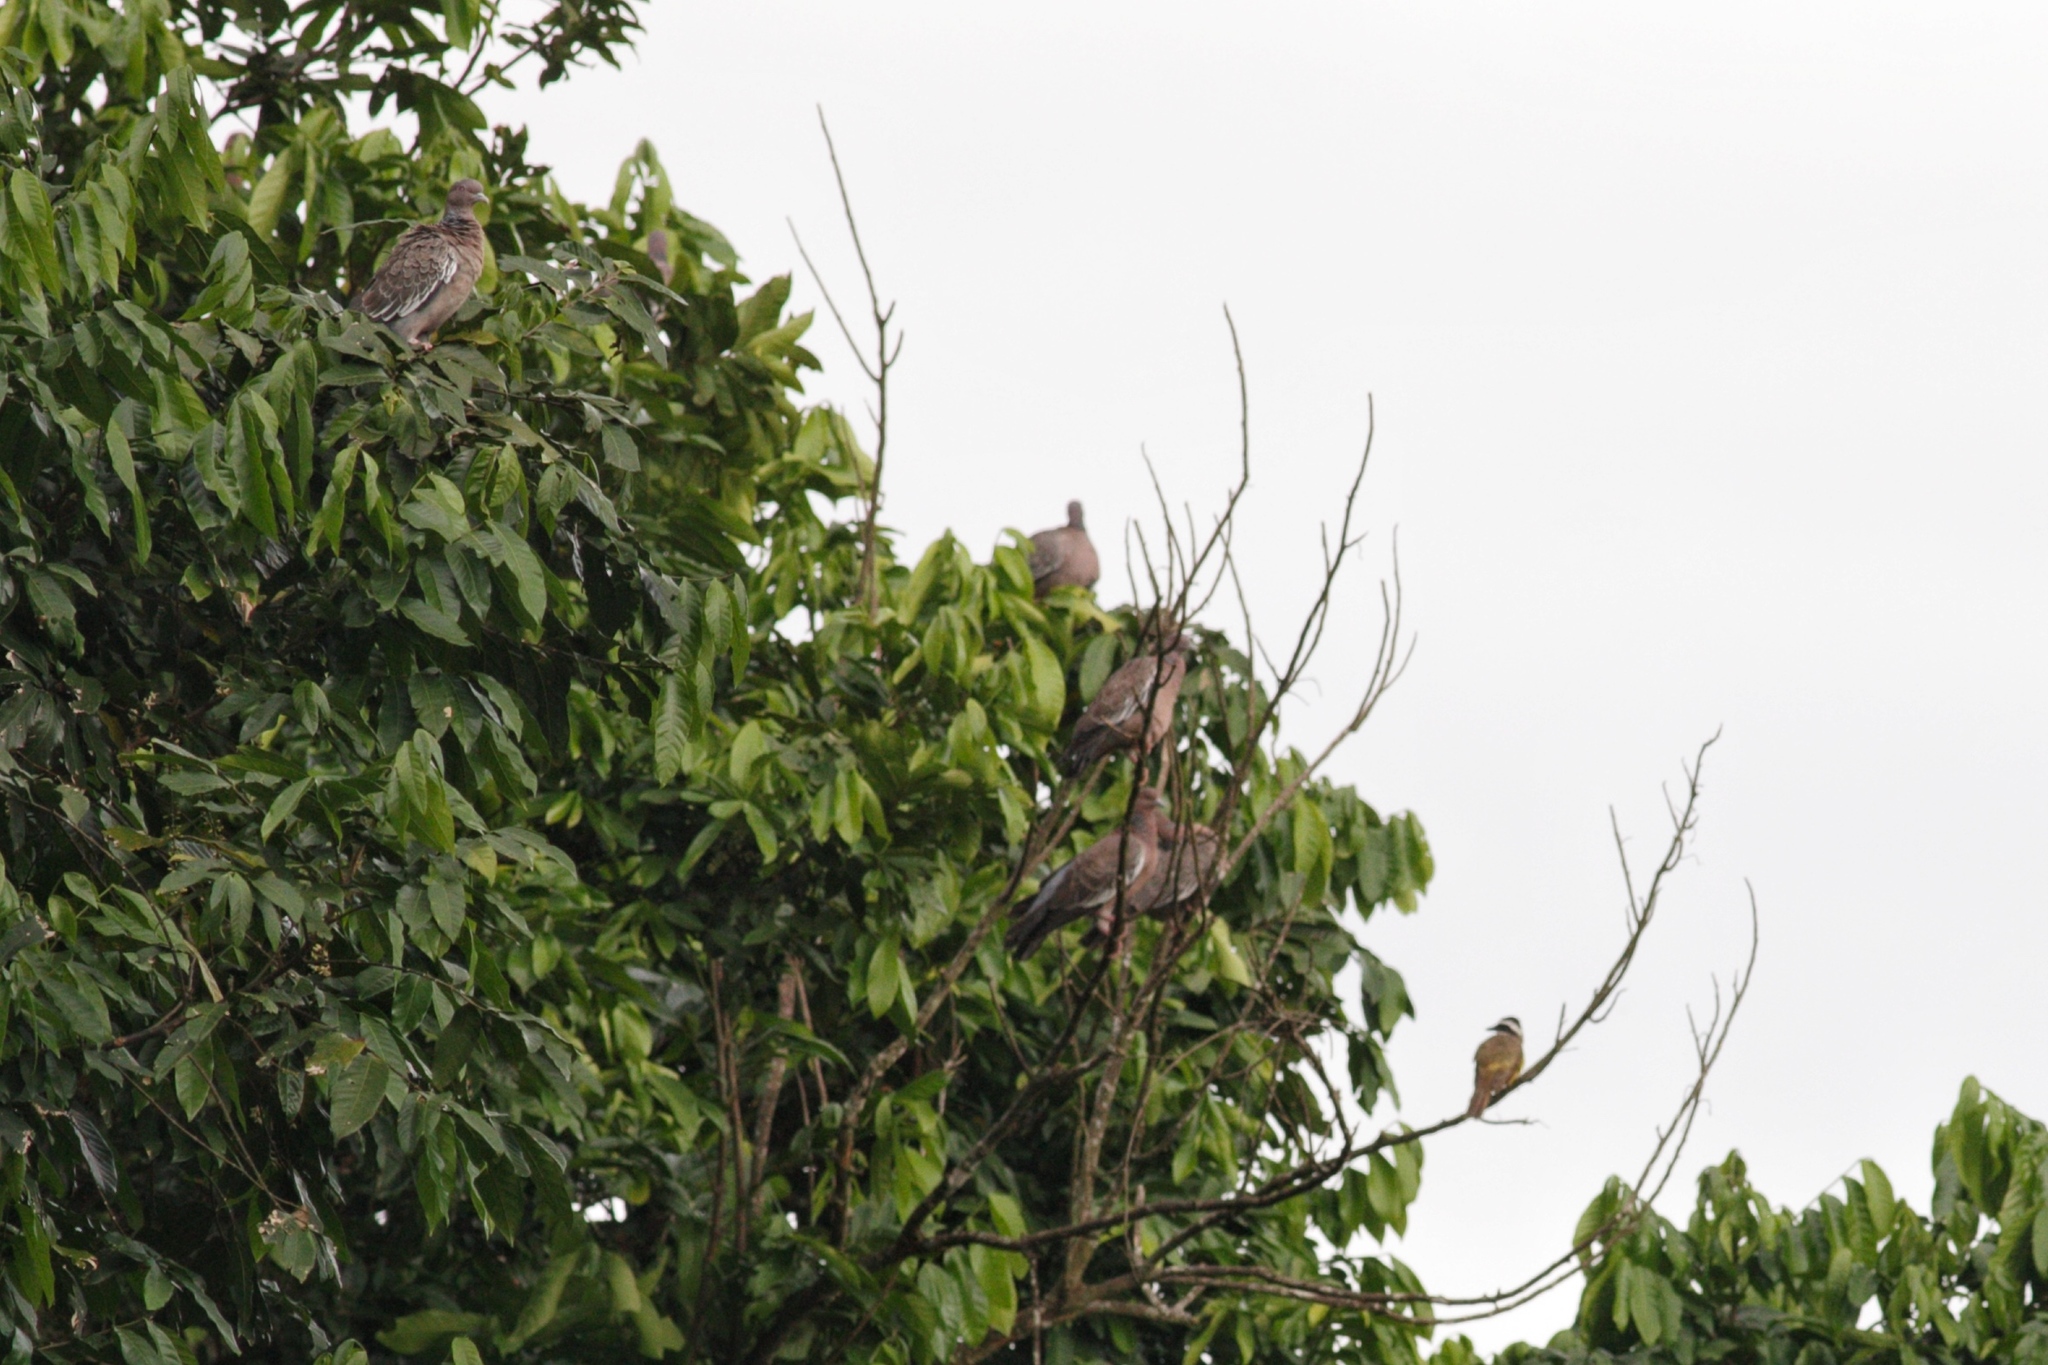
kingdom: Animalia
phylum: Chordata
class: Aves
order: Columbiformes
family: Columbidae
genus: Patagioenas
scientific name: Patagioenas picazuro
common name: Picazuro pigeon
